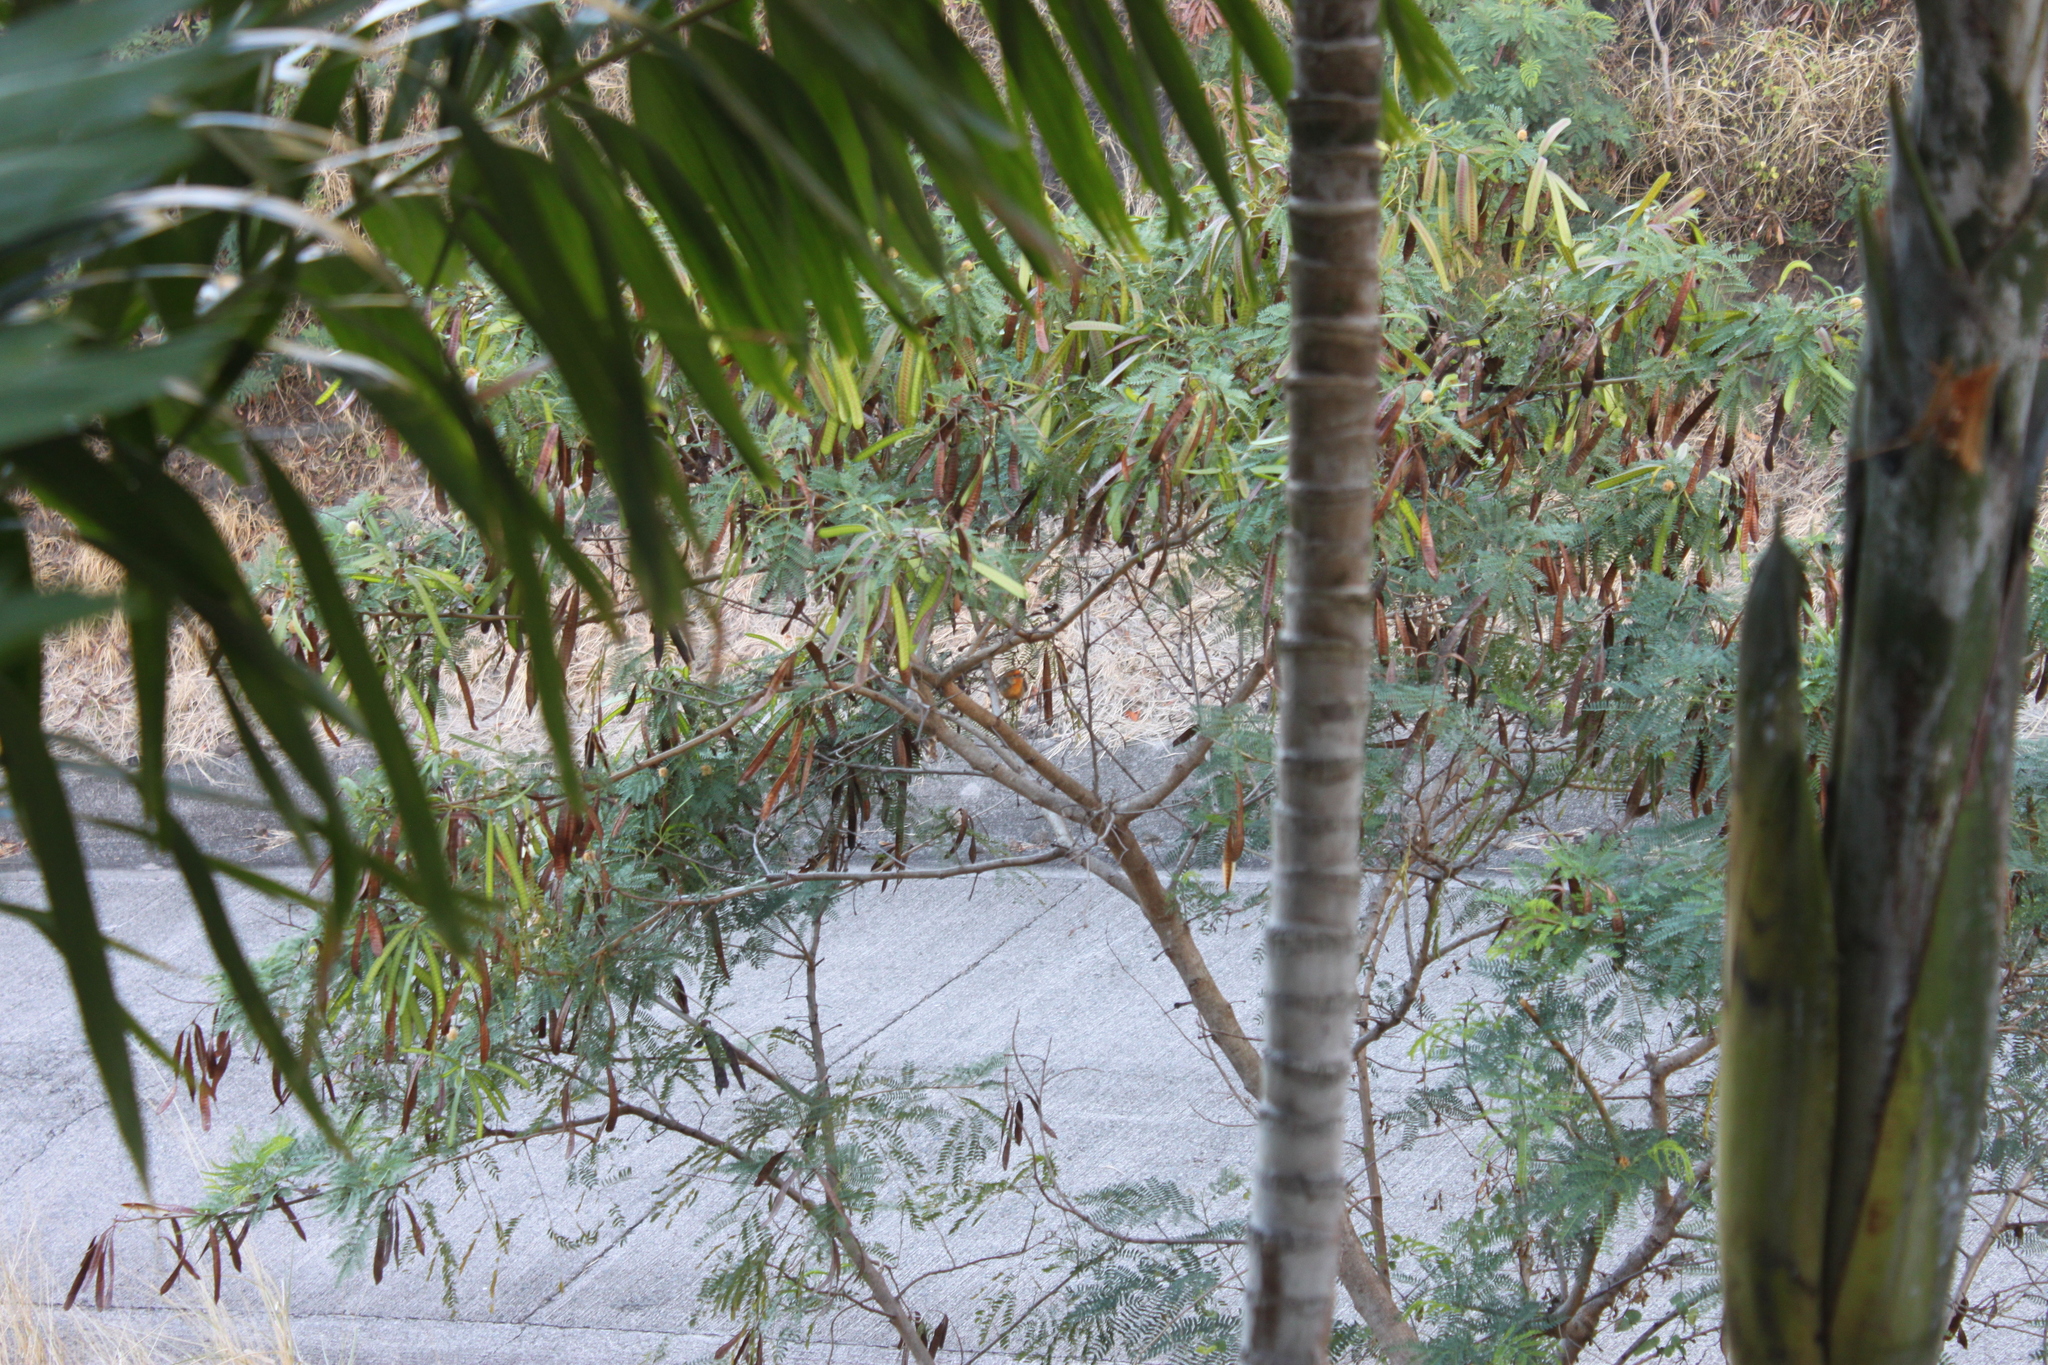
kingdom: Animalia
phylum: Chordata
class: Aves
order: Passeriformes
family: Fringillidae
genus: Haemorhous
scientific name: Haemorhous mexicanus
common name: House finch
